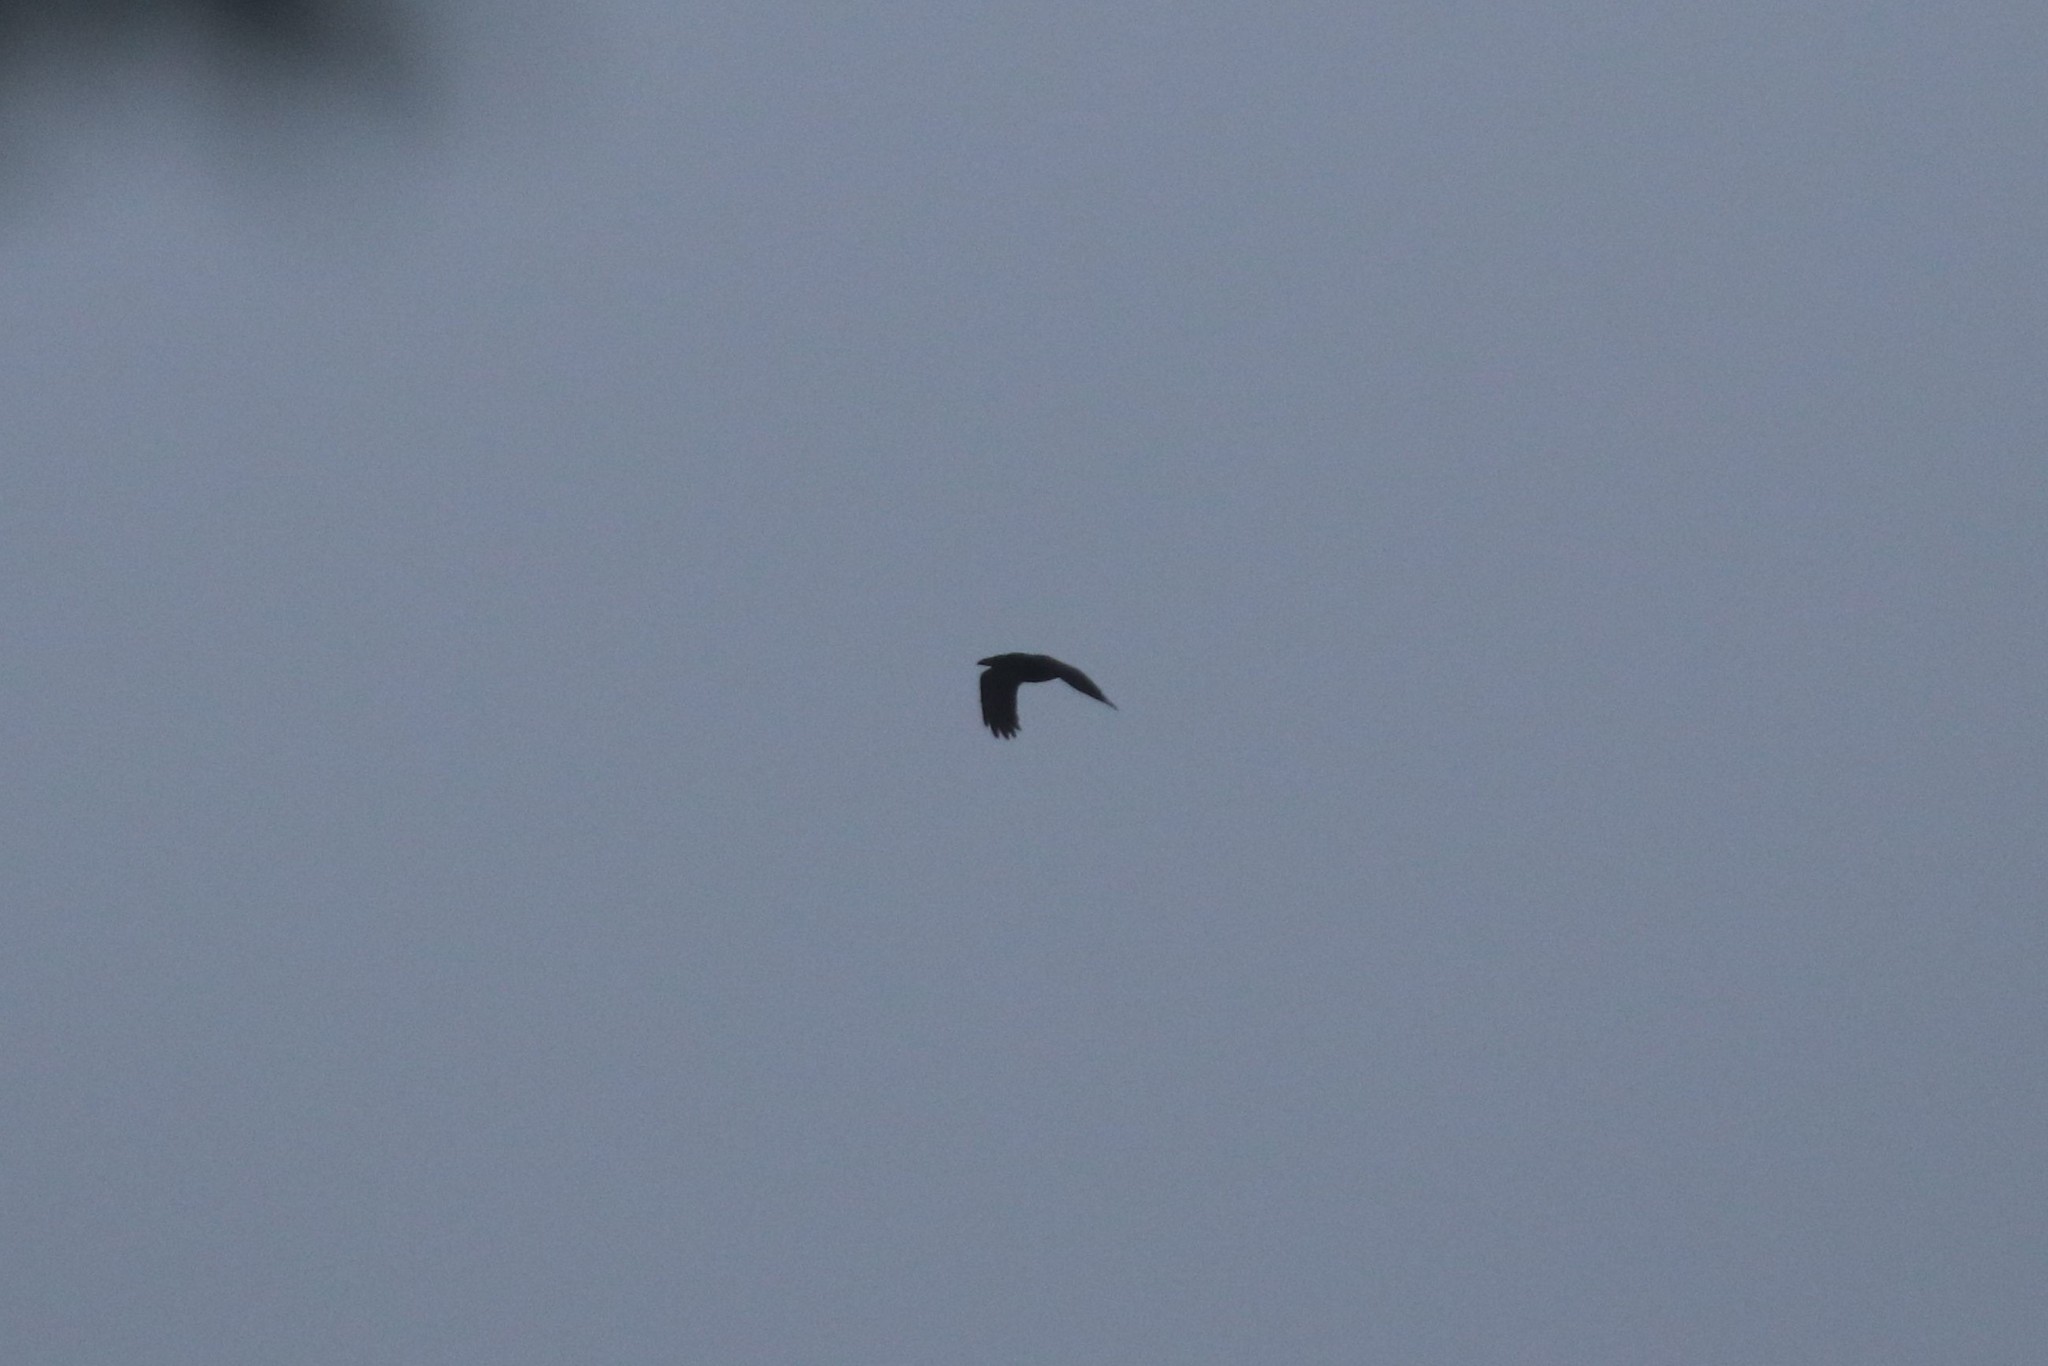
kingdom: Animalia
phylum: Chordata
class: Aves
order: Passeriformes
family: Corvidae
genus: Corvus
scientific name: Corvus corax
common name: Common raven
